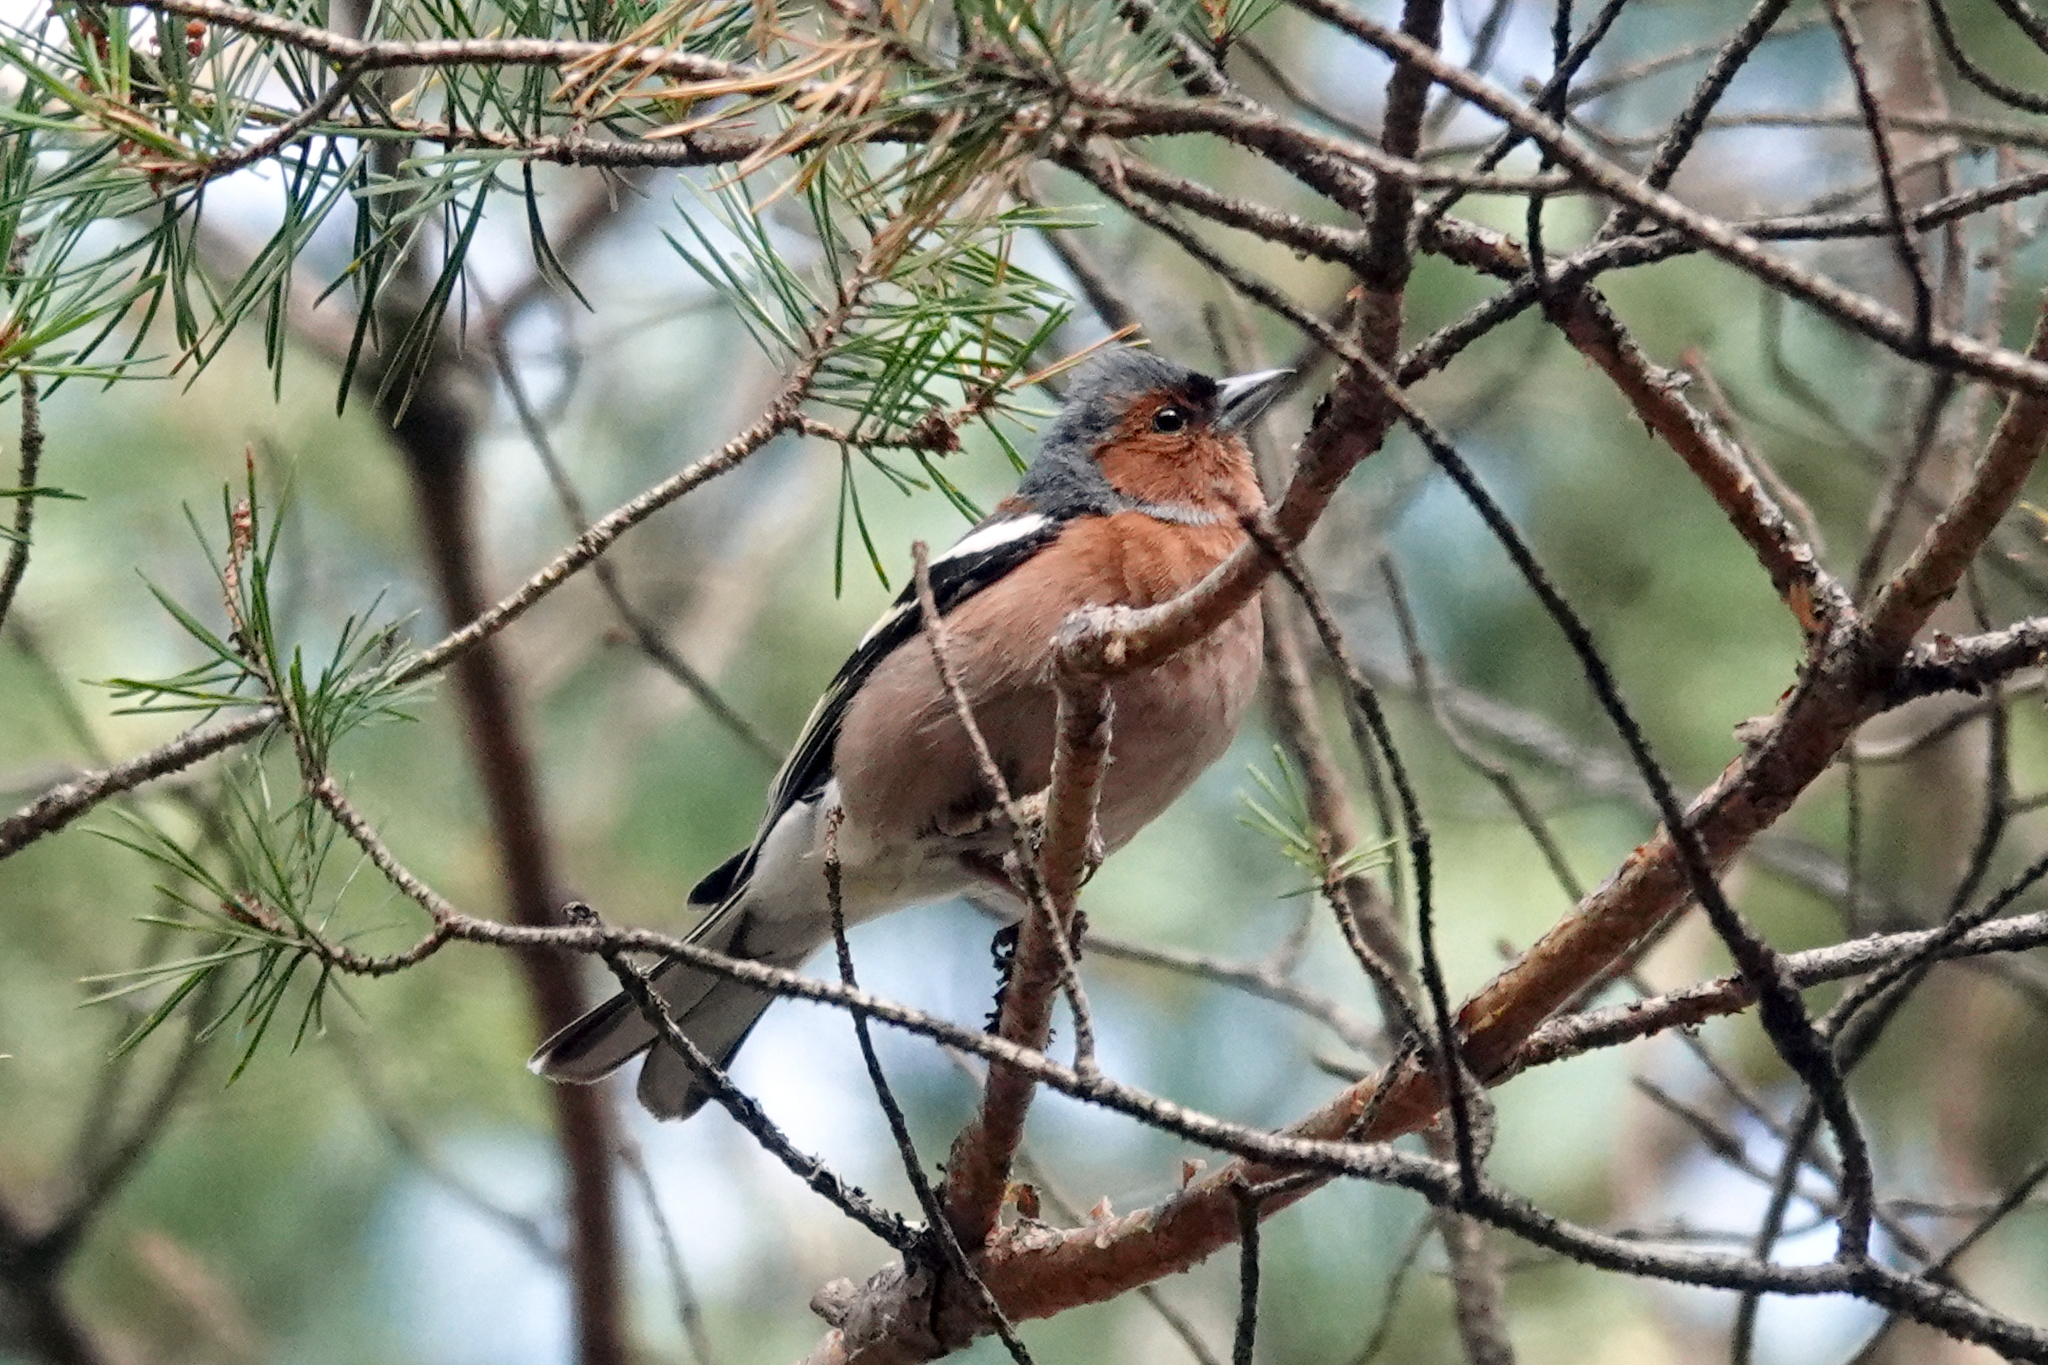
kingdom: Animalia
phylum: Chordata
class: Aves
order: Passeriformes
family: Fringillidae
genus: Fringilla
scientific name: Fringilla coelebs
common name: Common chaffinch
